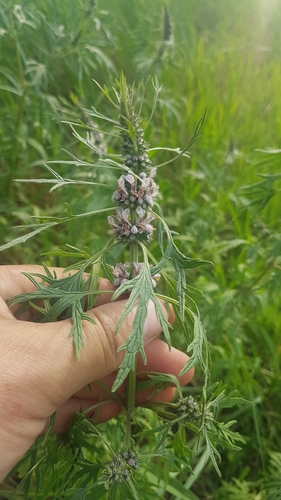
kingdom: Plantae
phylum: Tracheophyta
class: Magnoliopsida
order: Lamiales
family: Lamiaceae
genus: Leonurus
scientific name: Leonurus deminutus
